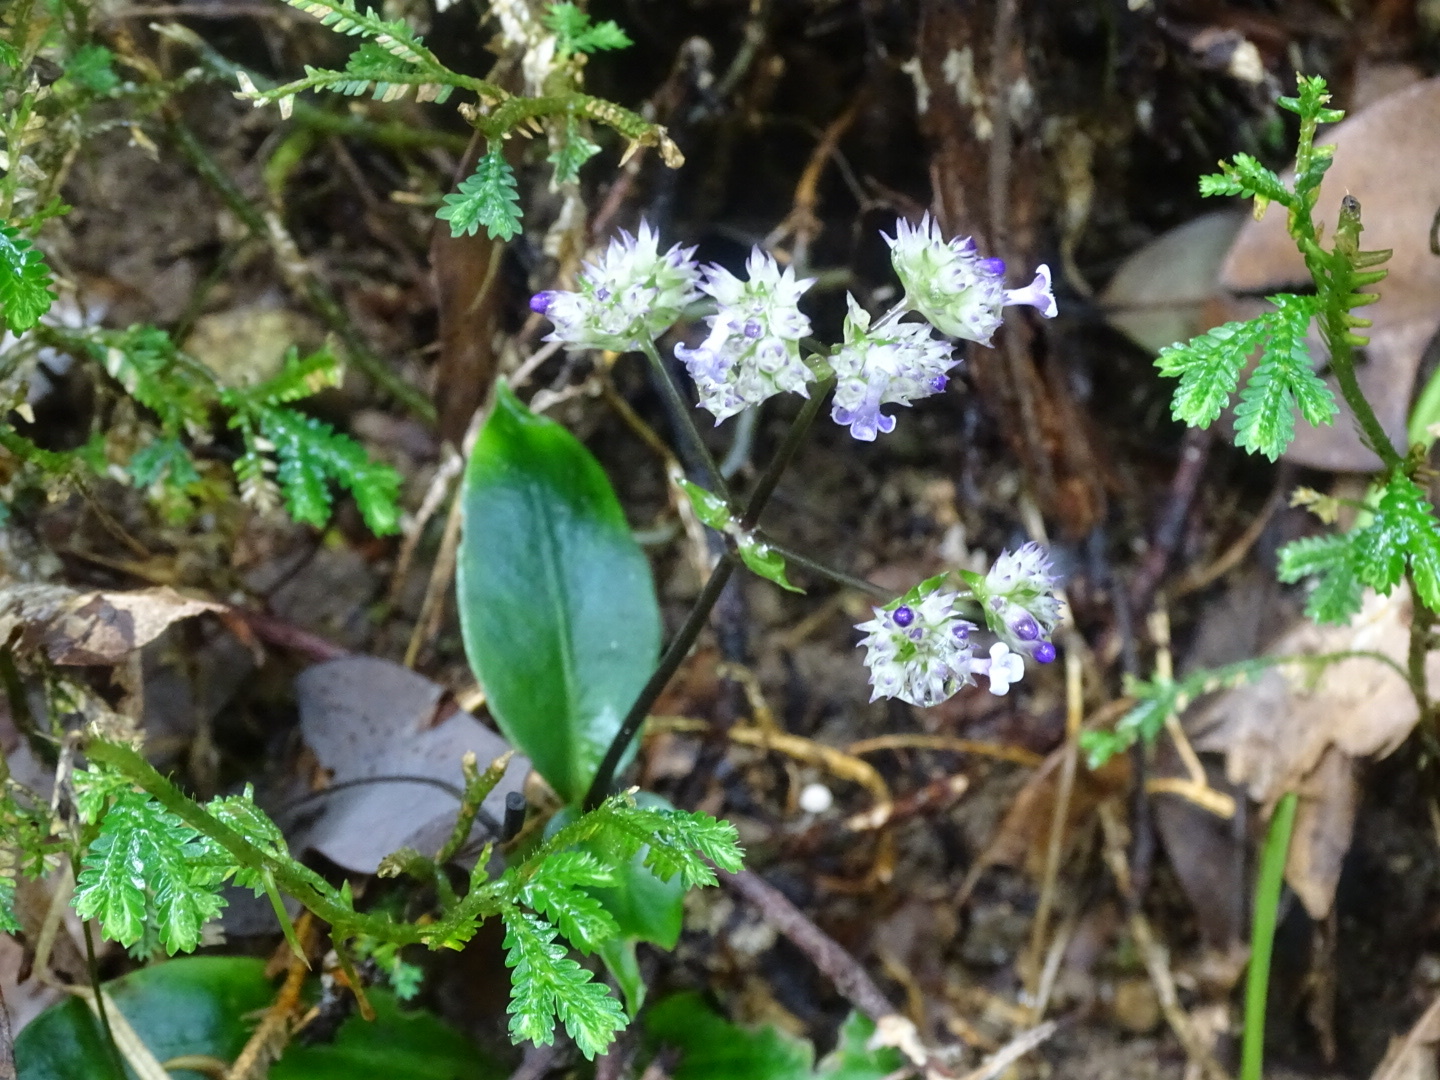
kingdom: Plantae
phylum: Tracheophyta
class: Magnoliopsida
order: Gentianales
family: Rubiaceae
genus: Hedyotis
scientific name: Hedyotis shiuyingiae
